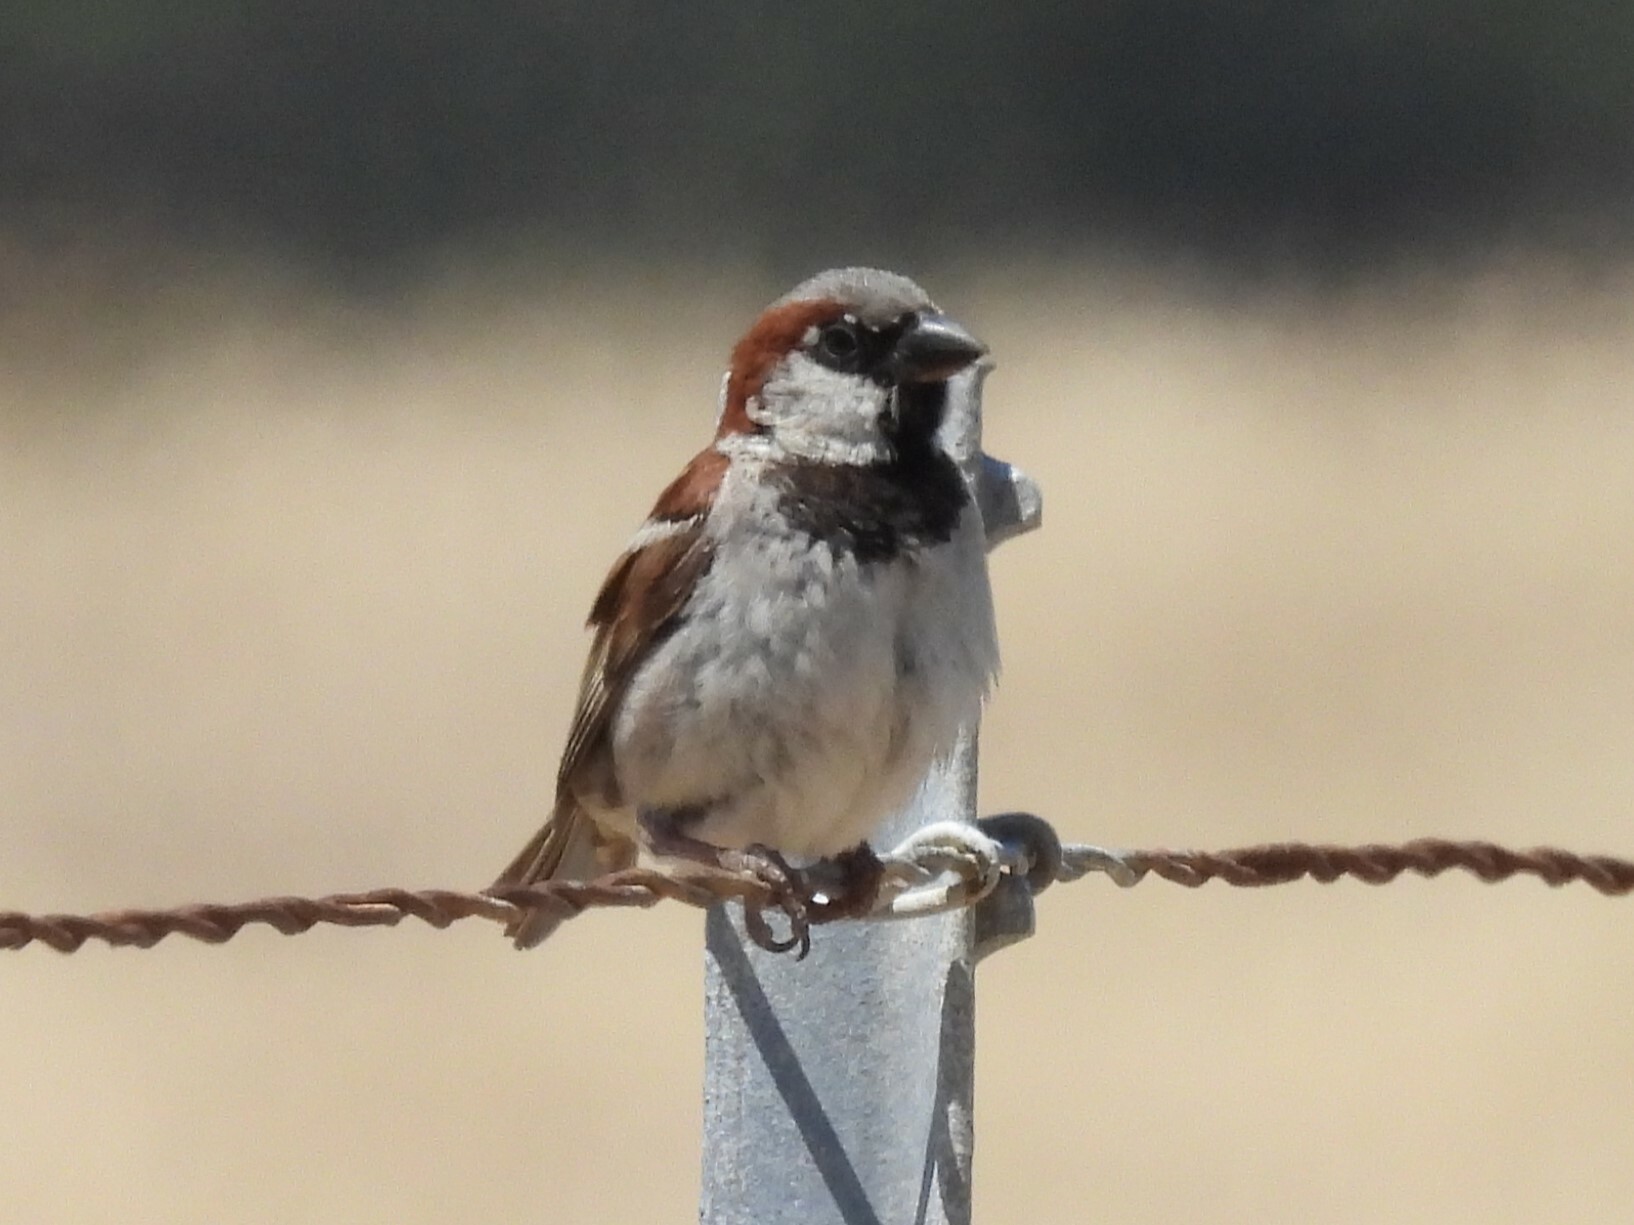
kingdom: Animalia
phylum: Chordata
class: Aves
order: Passeriformes
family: Passeridae
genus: Passer
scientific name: Passer domesticus
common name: House sparrow
